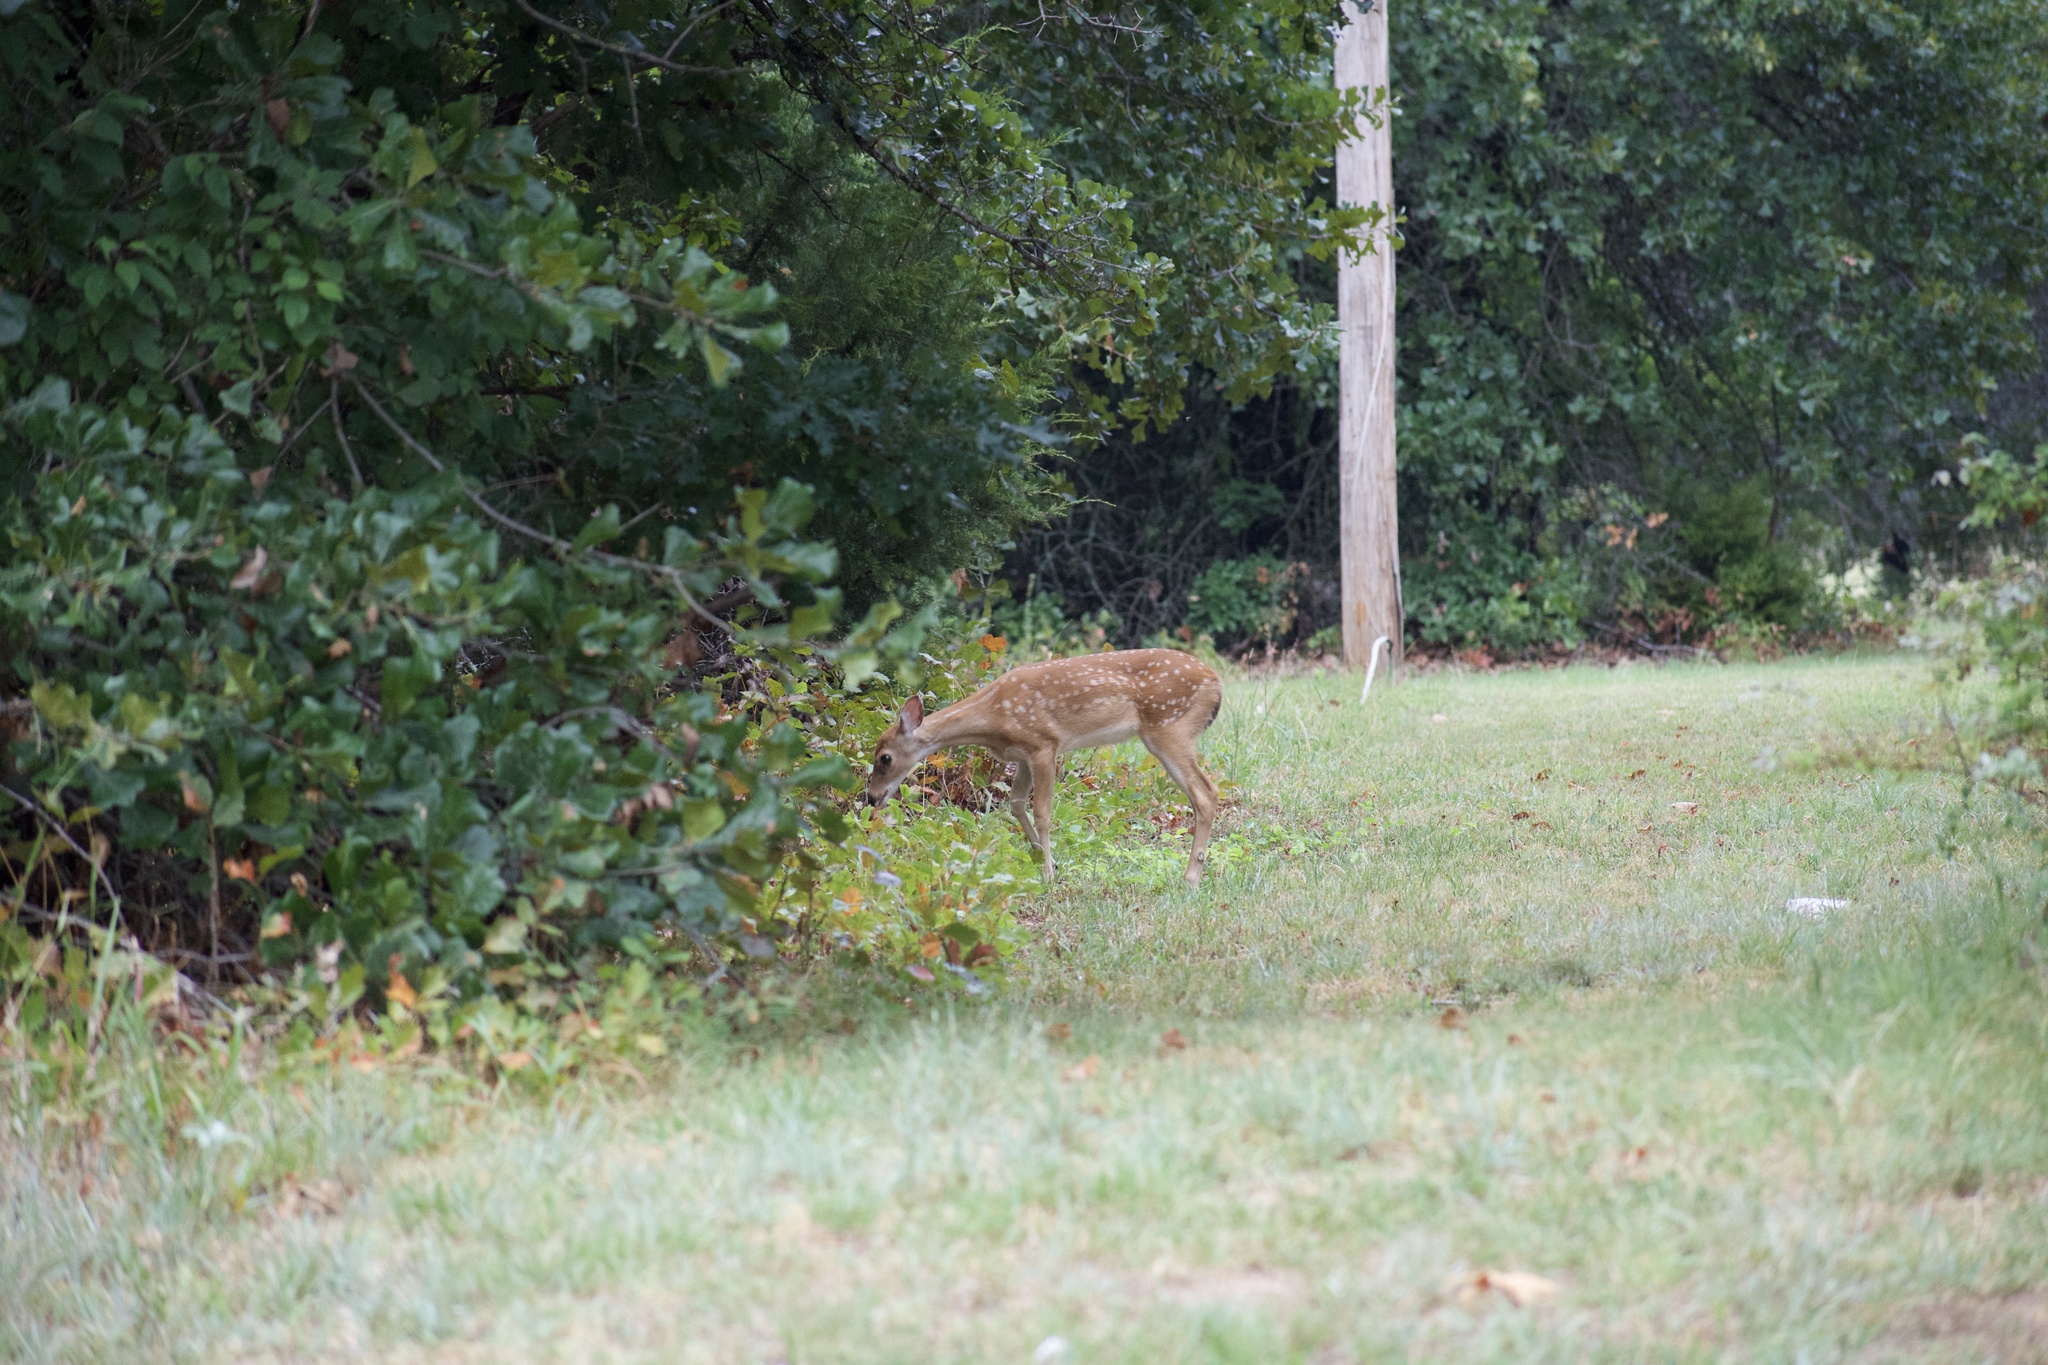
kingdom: Animalia
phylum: Chordata
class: Mammalia
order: Artiodactyla
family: Cervidae
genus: Odocoileus
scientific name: Odocoileus virginianus
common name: White-tailed deer
